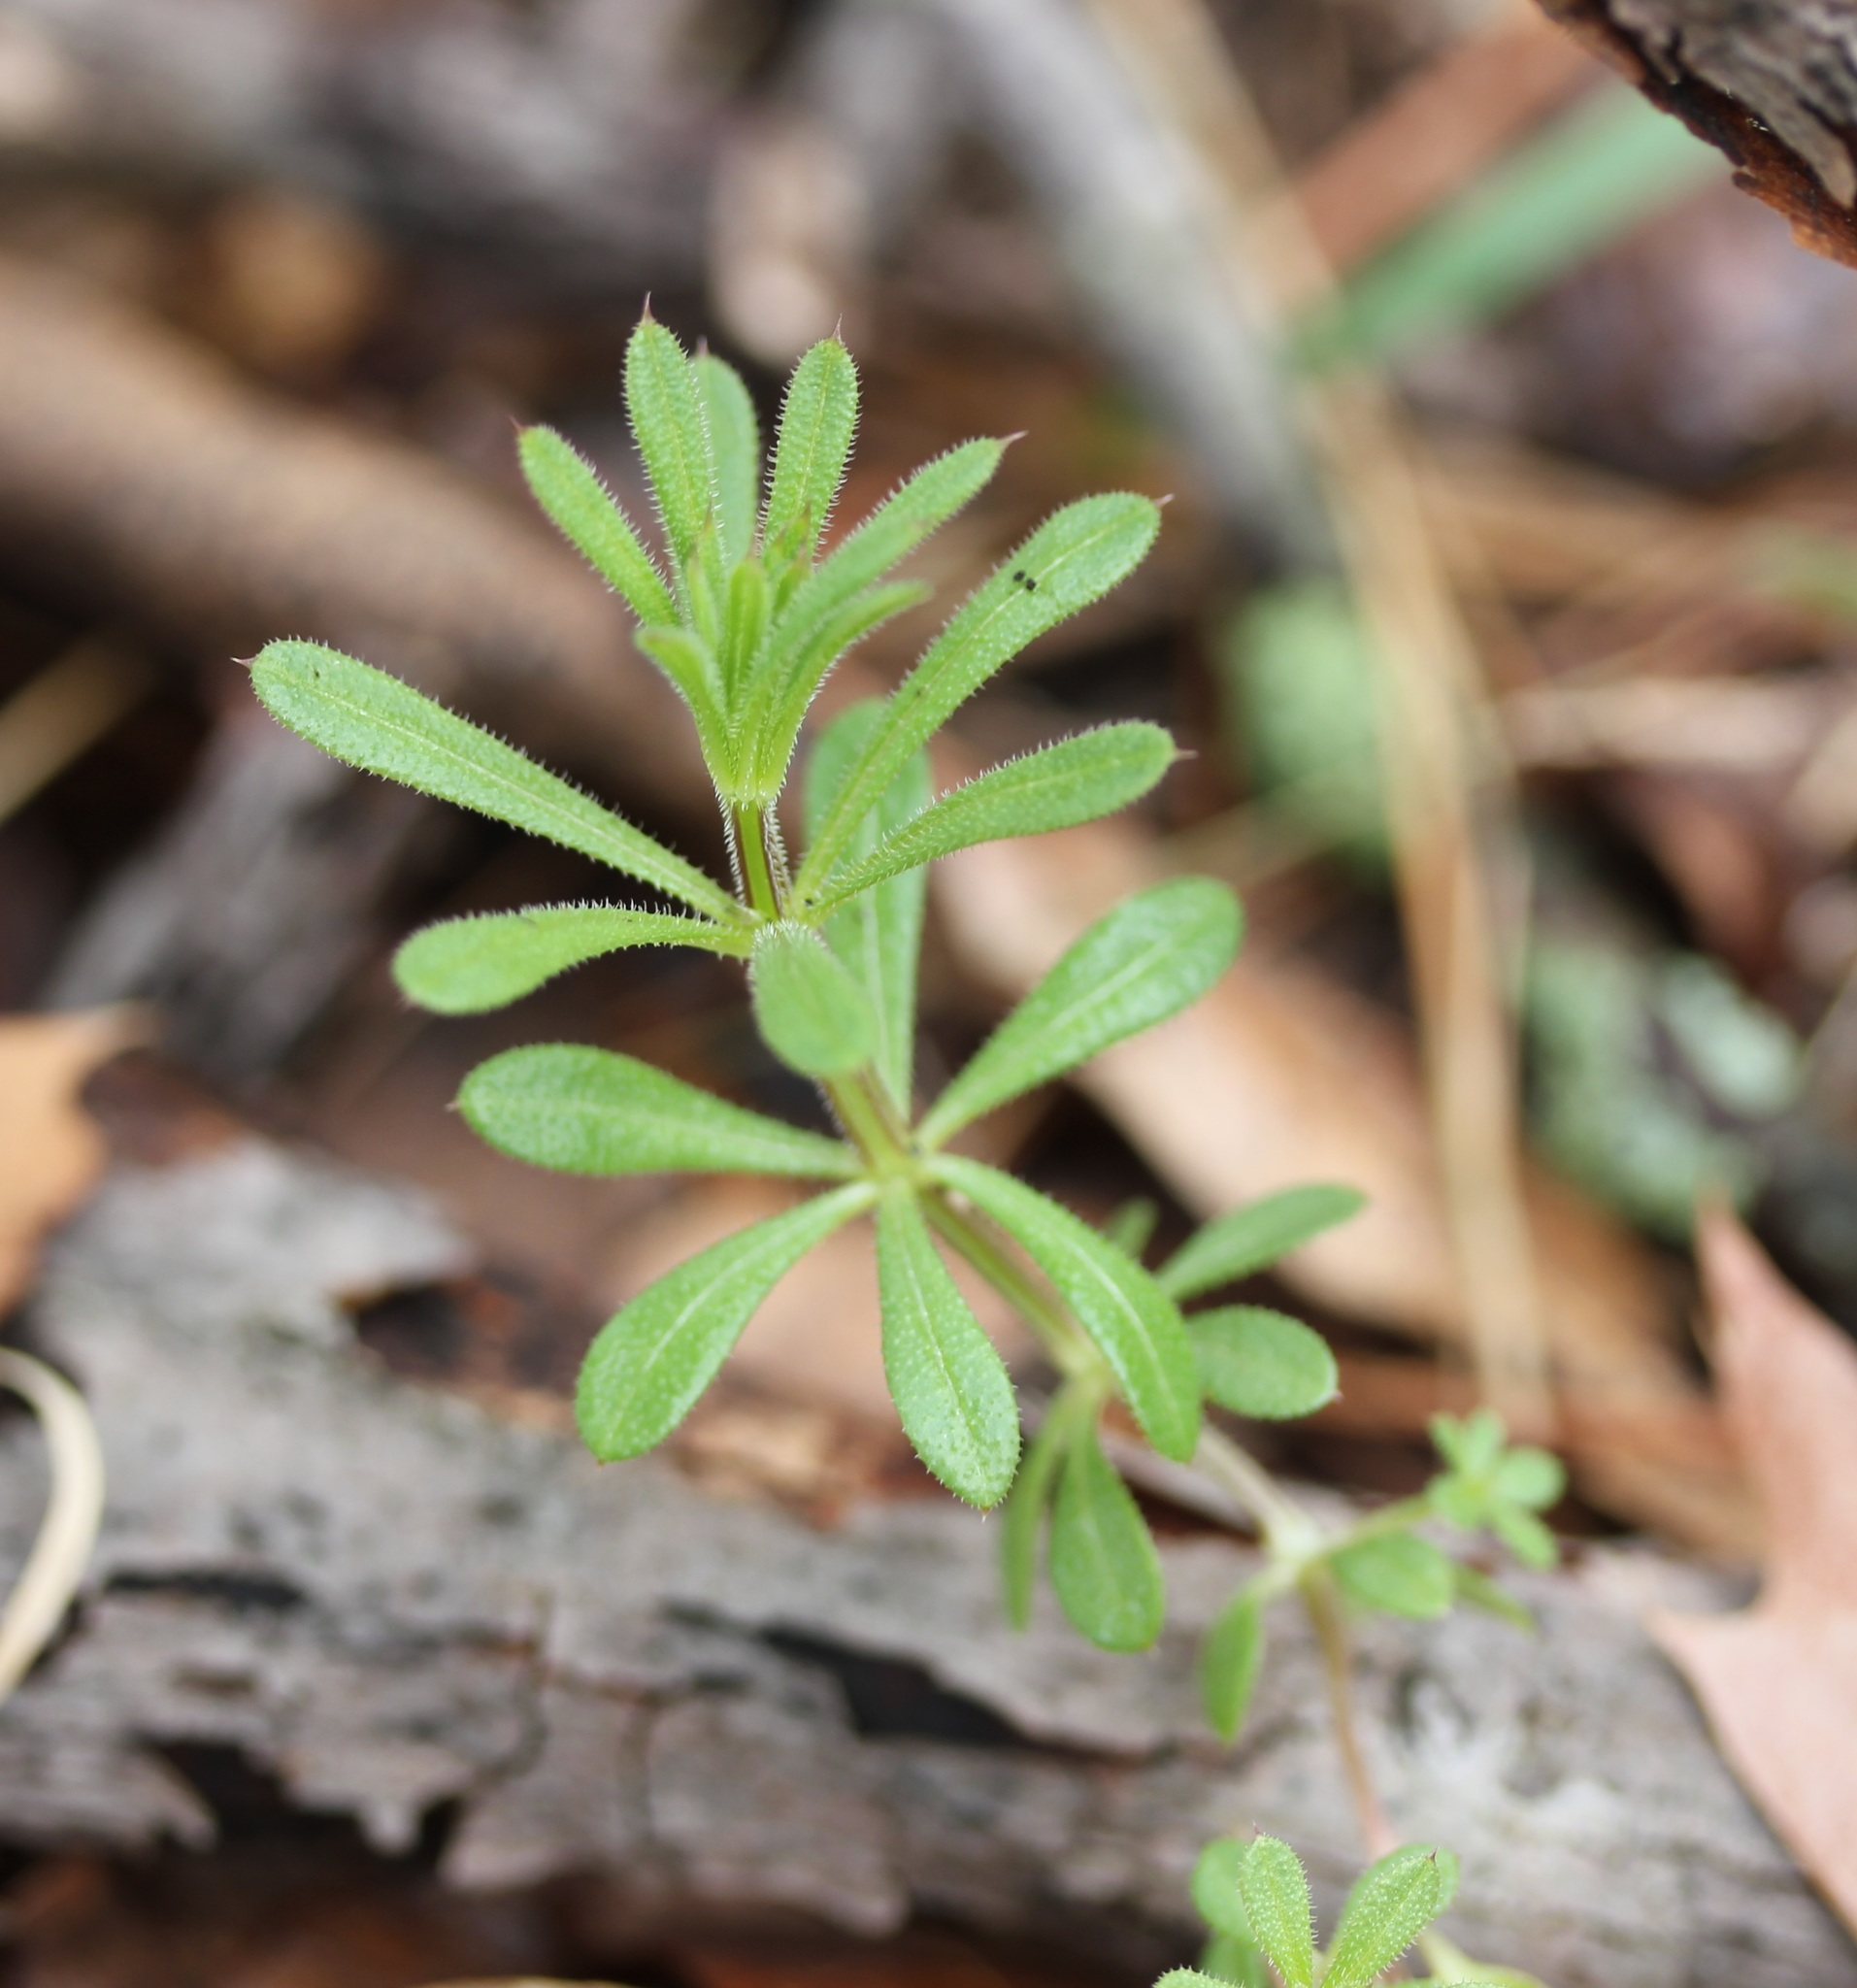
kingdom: Plantae
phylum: Tracheophyta
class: Magnoliopsida
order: Gentianales
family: Rubiaceae
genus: Galium
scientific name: Galium aparine
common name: Cleavers
